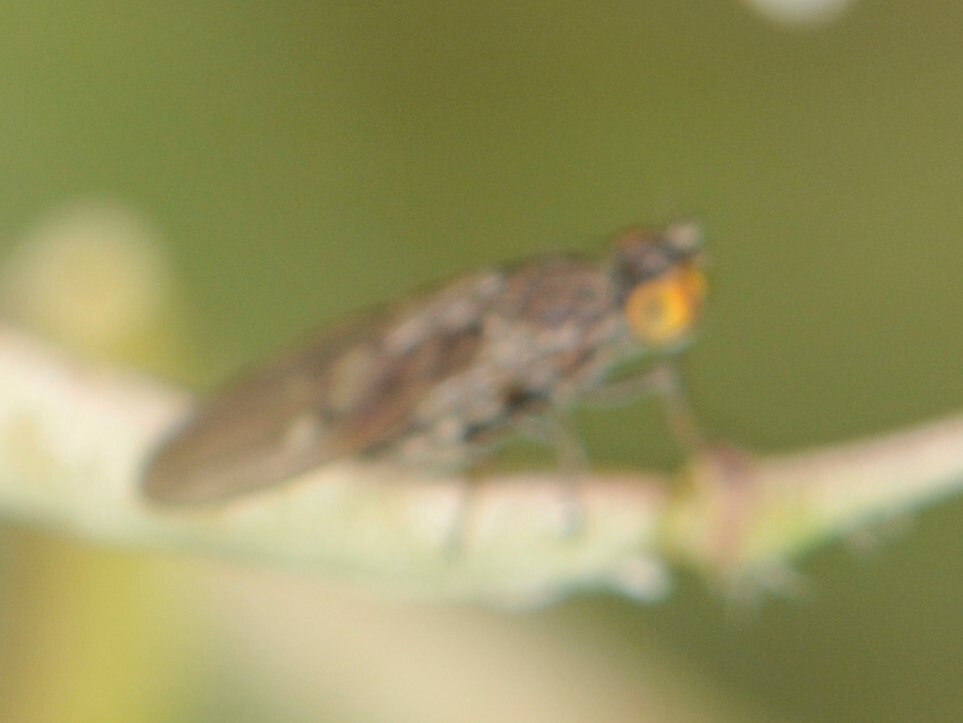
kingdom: Animalia
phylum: Arthropoda
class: Insecta
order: Diptera
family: Ephydridae
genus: Philygria
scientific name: Philygria debilis
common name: Brine fly
